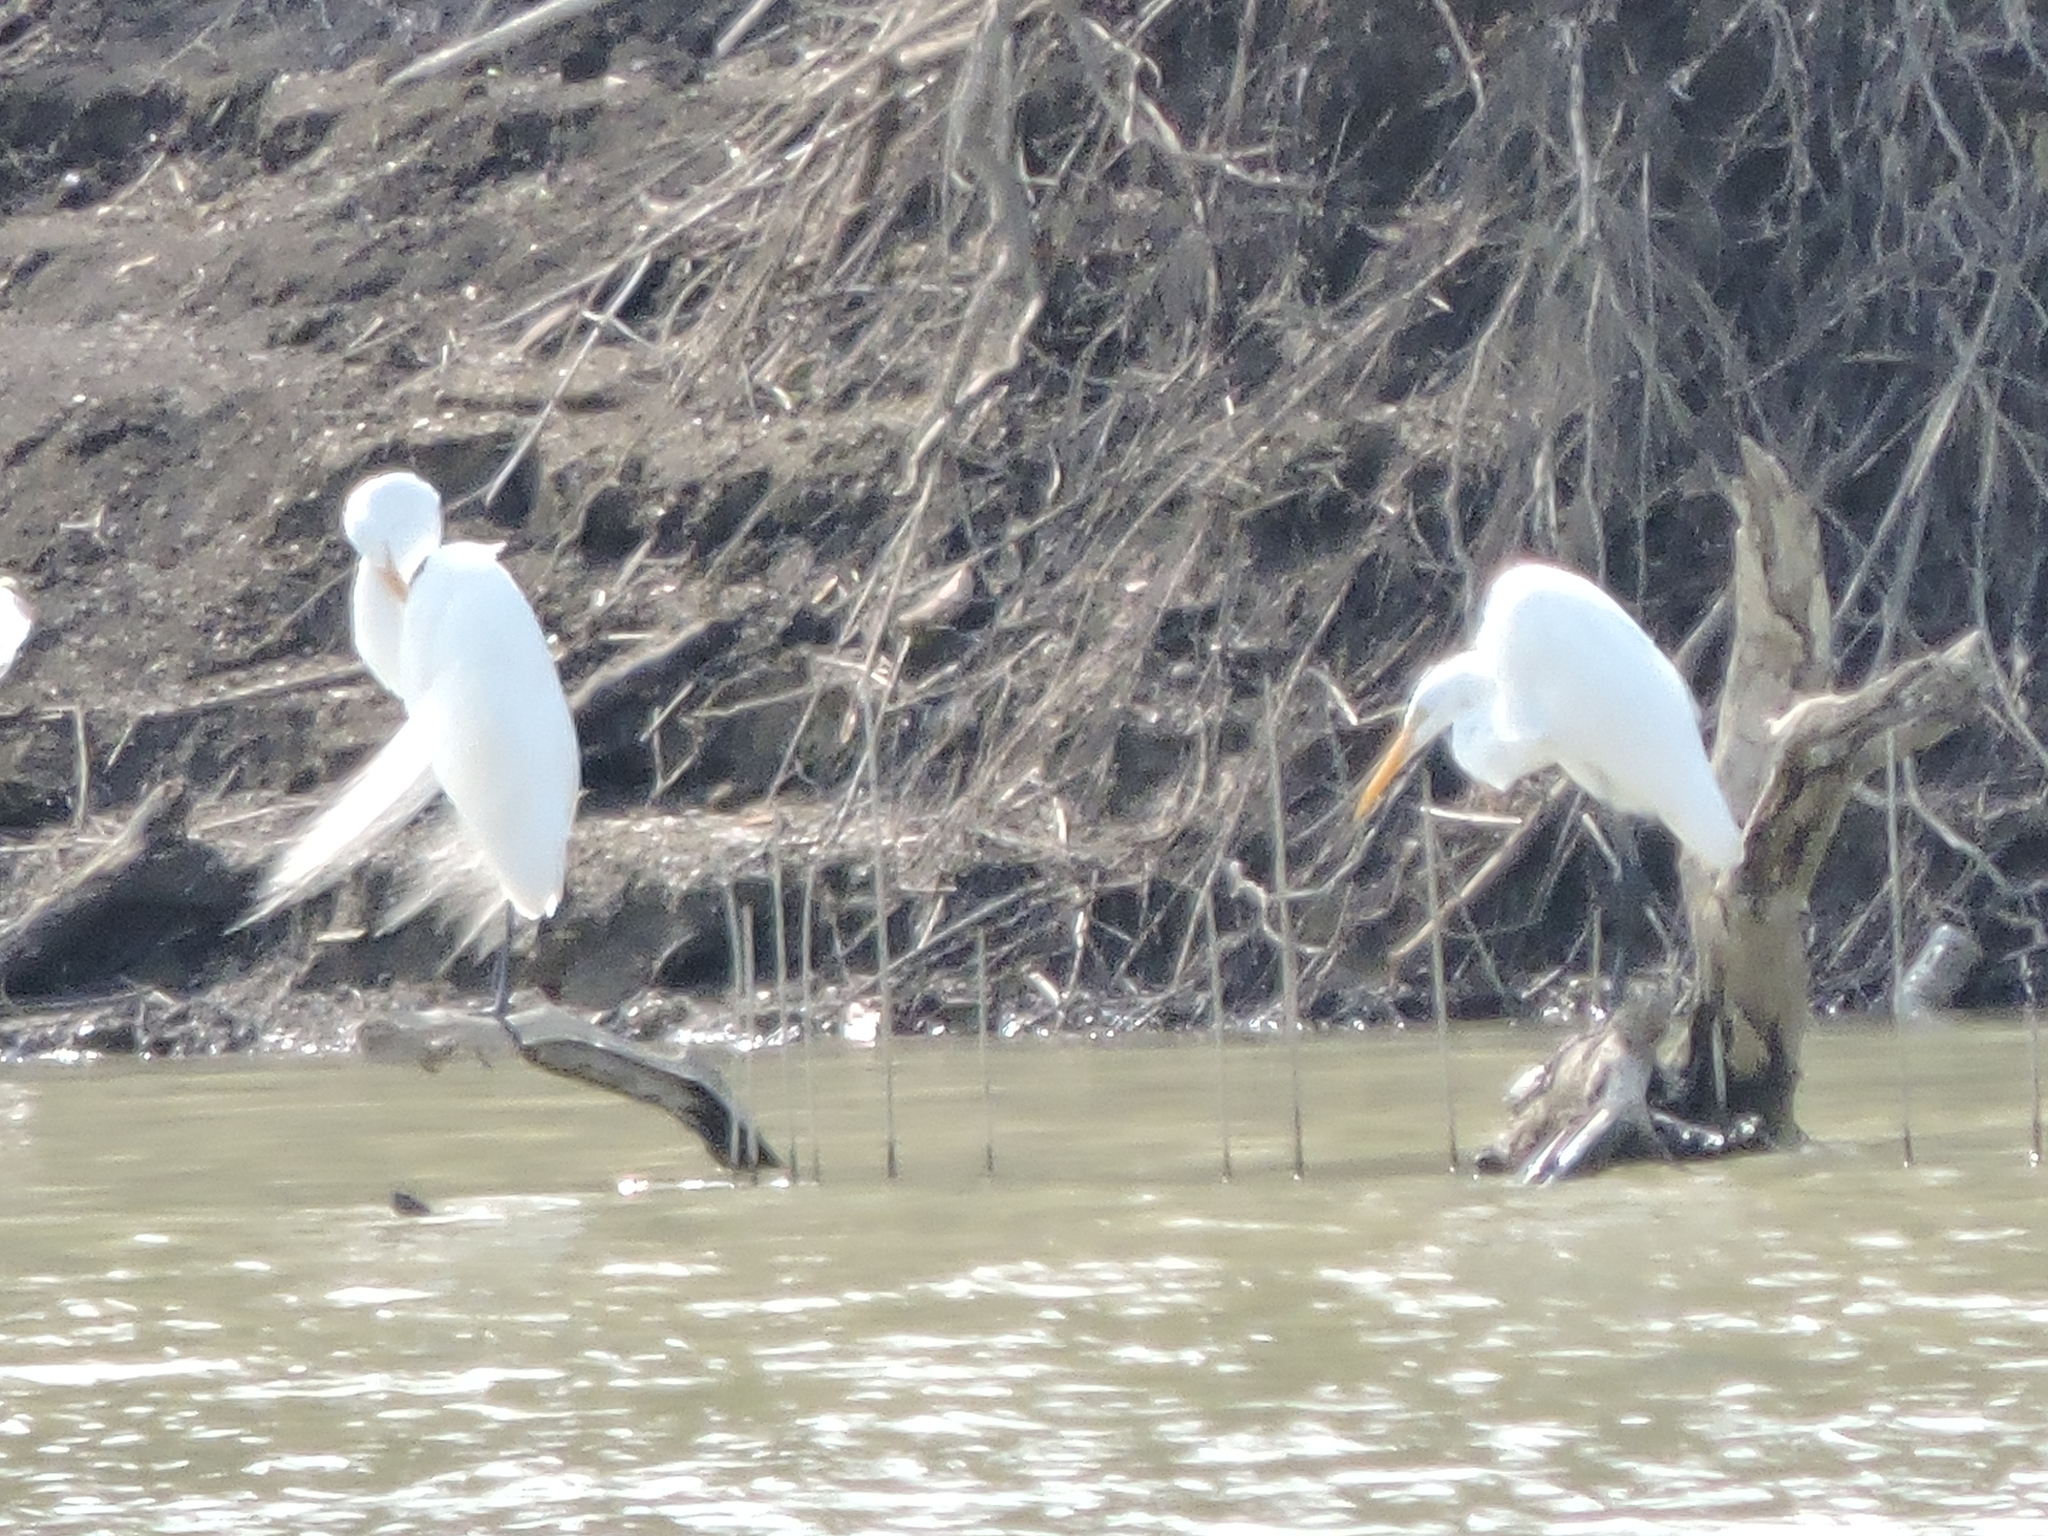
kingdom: Animalia
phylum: Chordata
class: Aves
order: Pelecaniformes
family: Ardeidae
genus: Ardea
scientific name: Ardea alba
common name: Great egret
